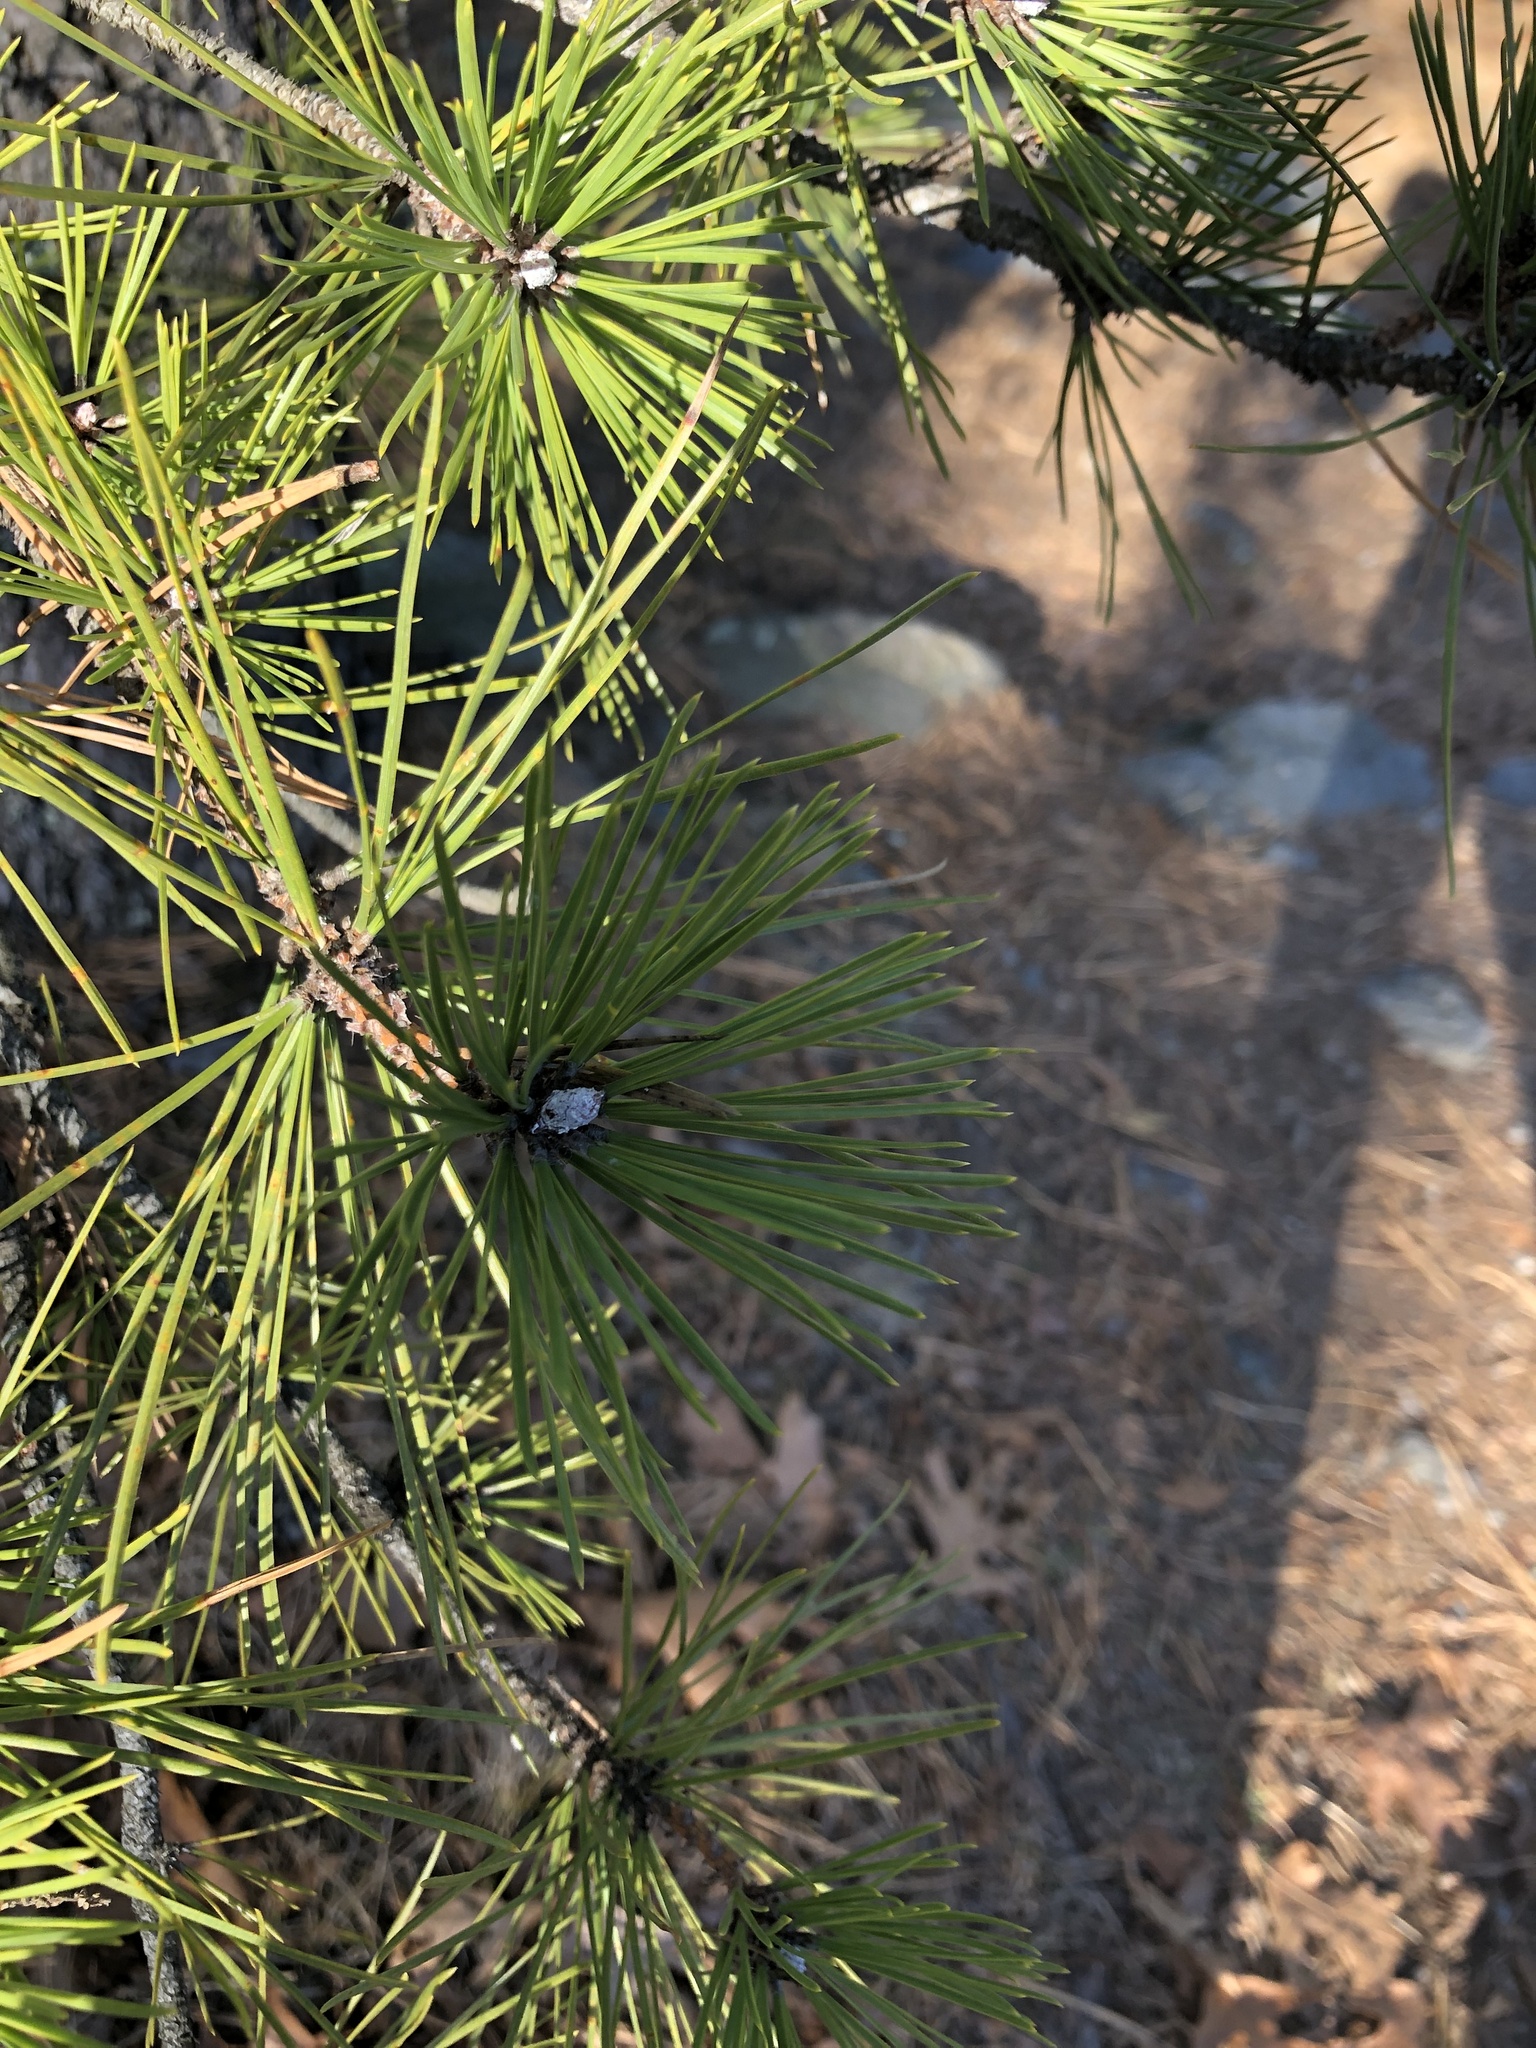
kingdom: Plantae
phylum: Tracheophyta
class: Pinopsida
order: Pinales
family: Pinaceae
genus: Pinus
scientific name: Pinus rigida
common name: Pitch pine
